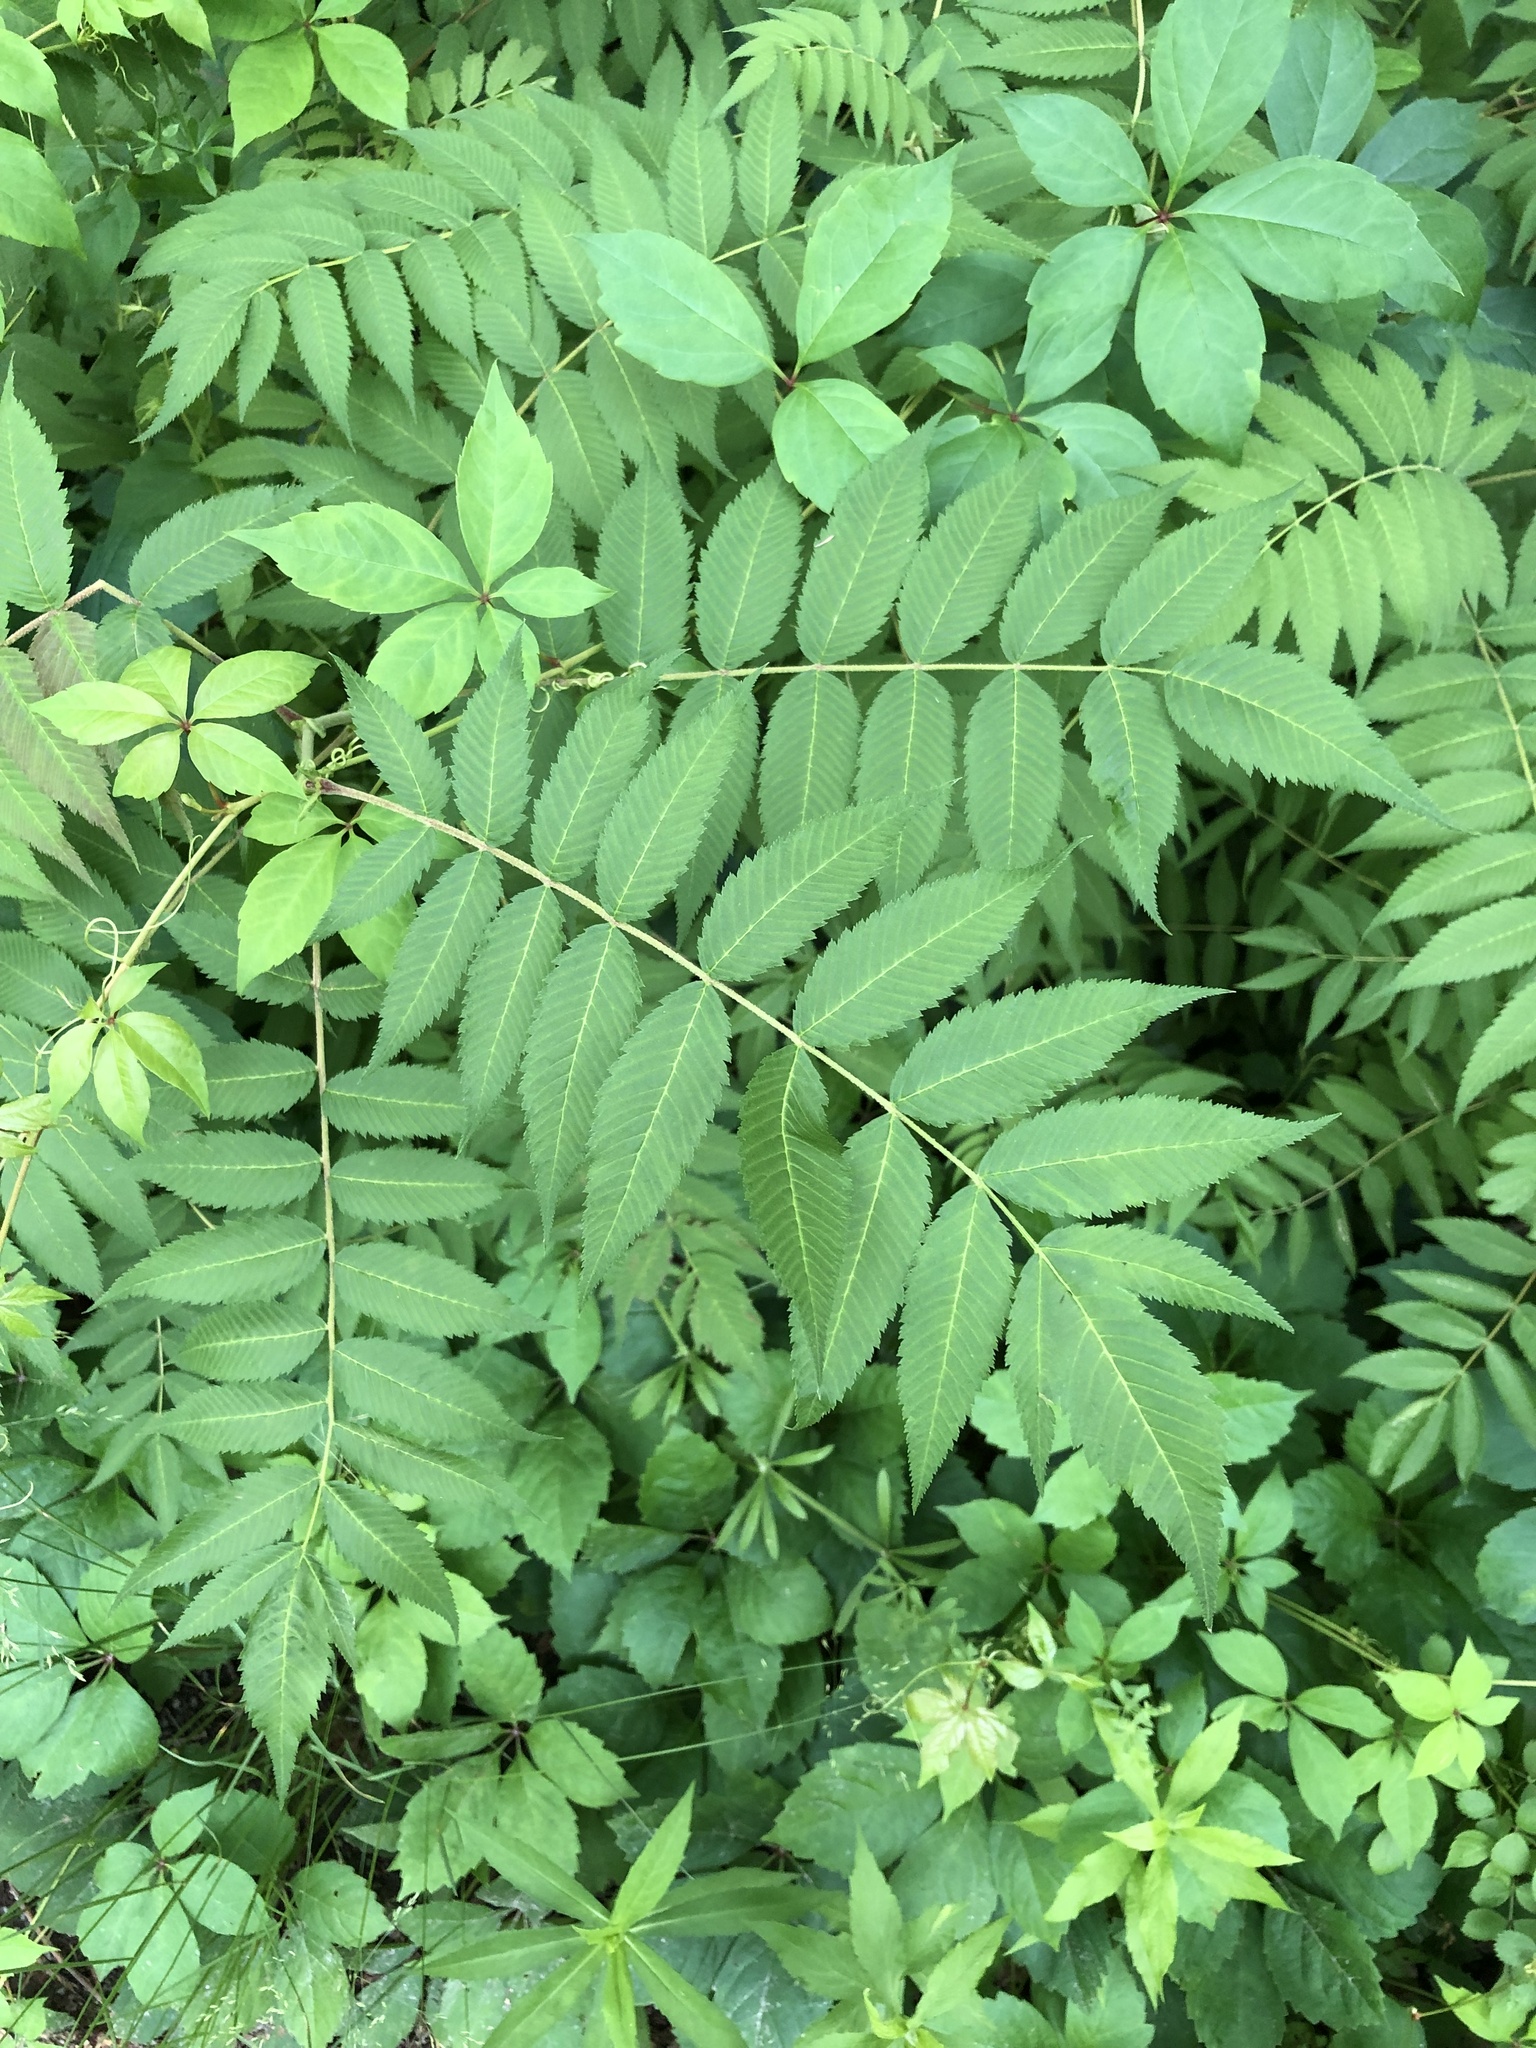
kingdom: Plantae
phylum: Tracheophyta
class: Magnoliopsida
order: Rosales
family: Rosaceae
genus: Sorbaria
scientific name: Sorbaria sorbifolia
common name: False spiraea
